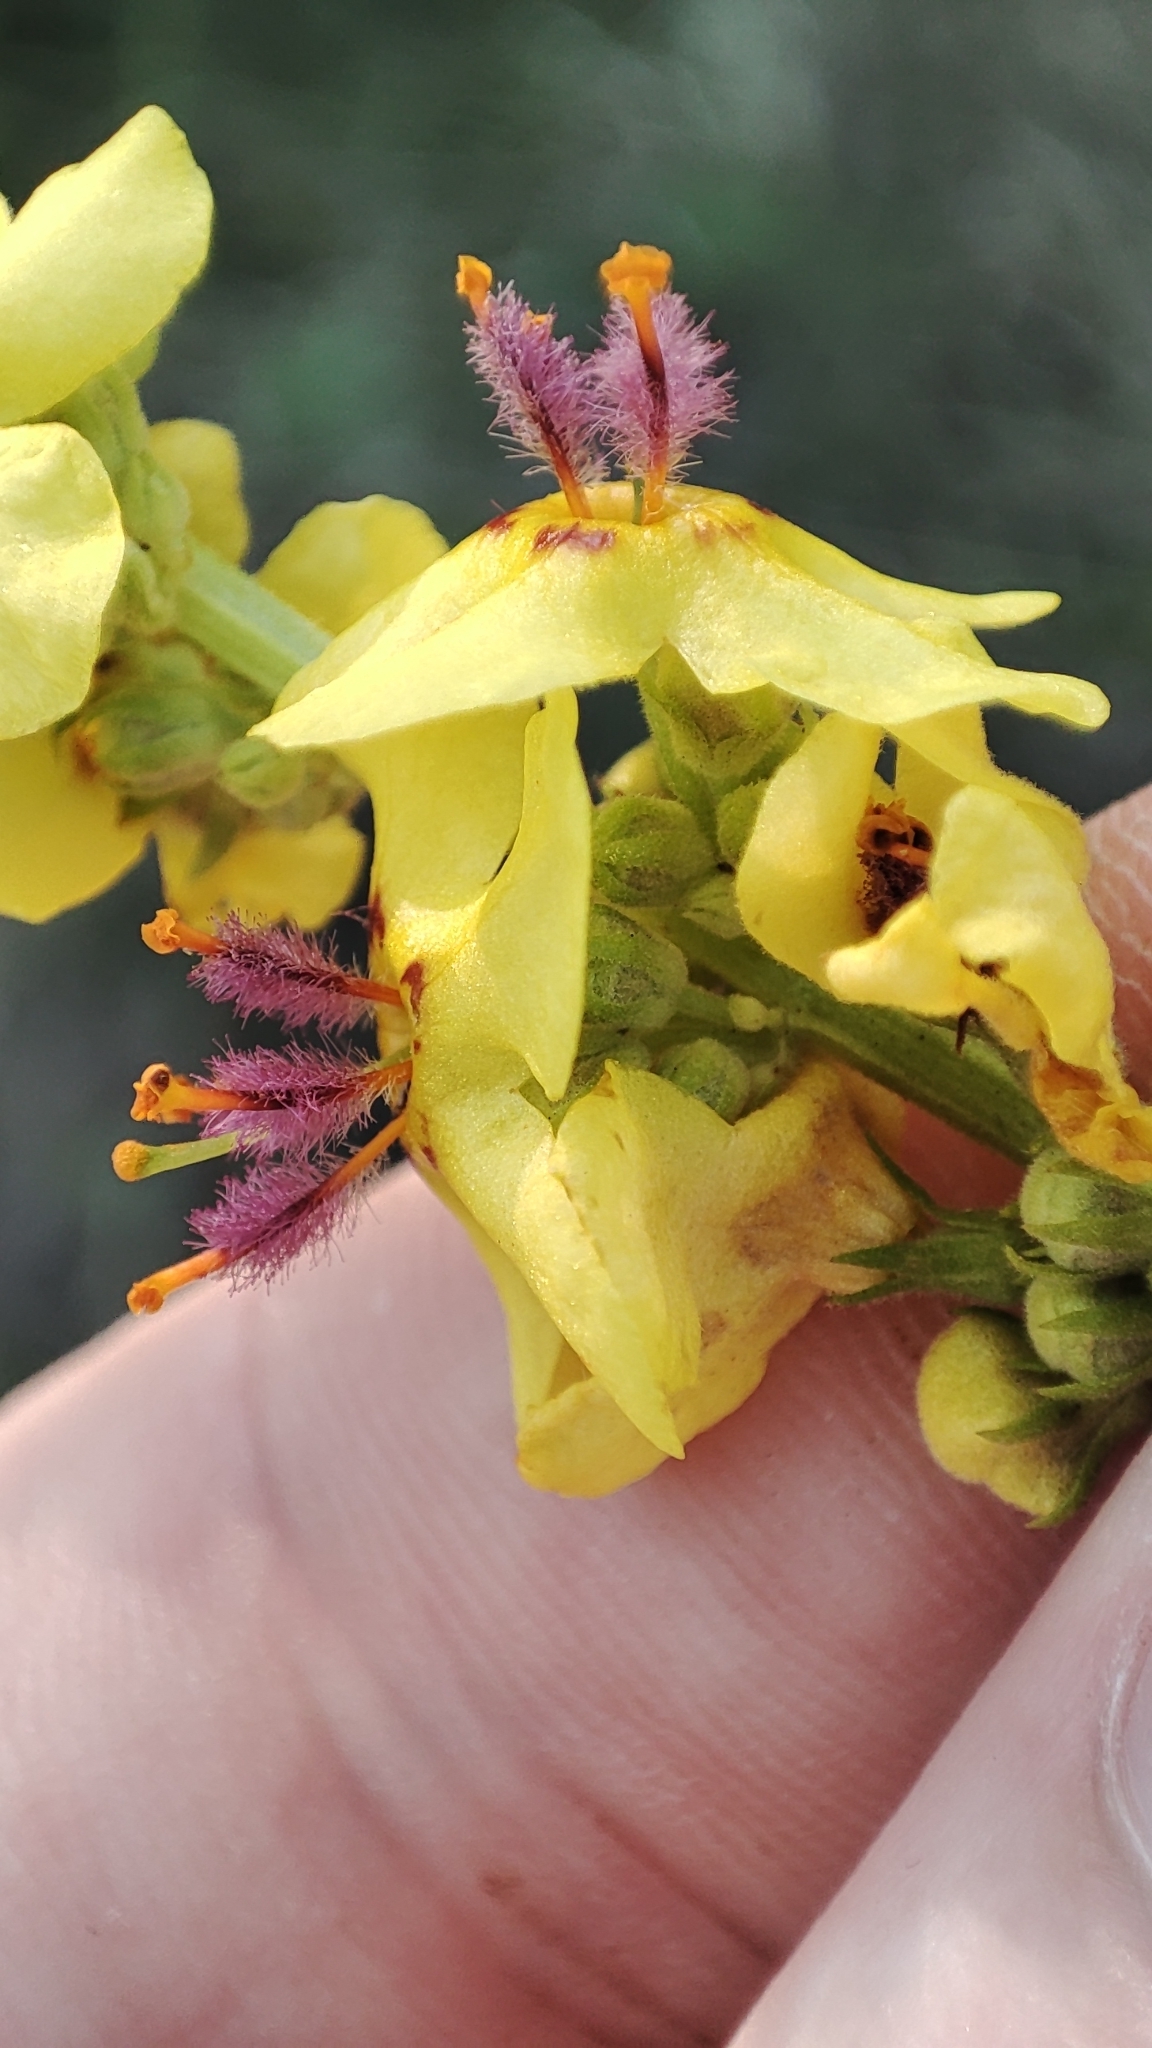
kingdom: Plantae
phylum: Tracheophyta
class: Magnoliopsida
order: Lamiales
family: Scrophulariaceae
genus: Verbascum
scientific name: Verbascum nigrum
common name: Dark mullein
